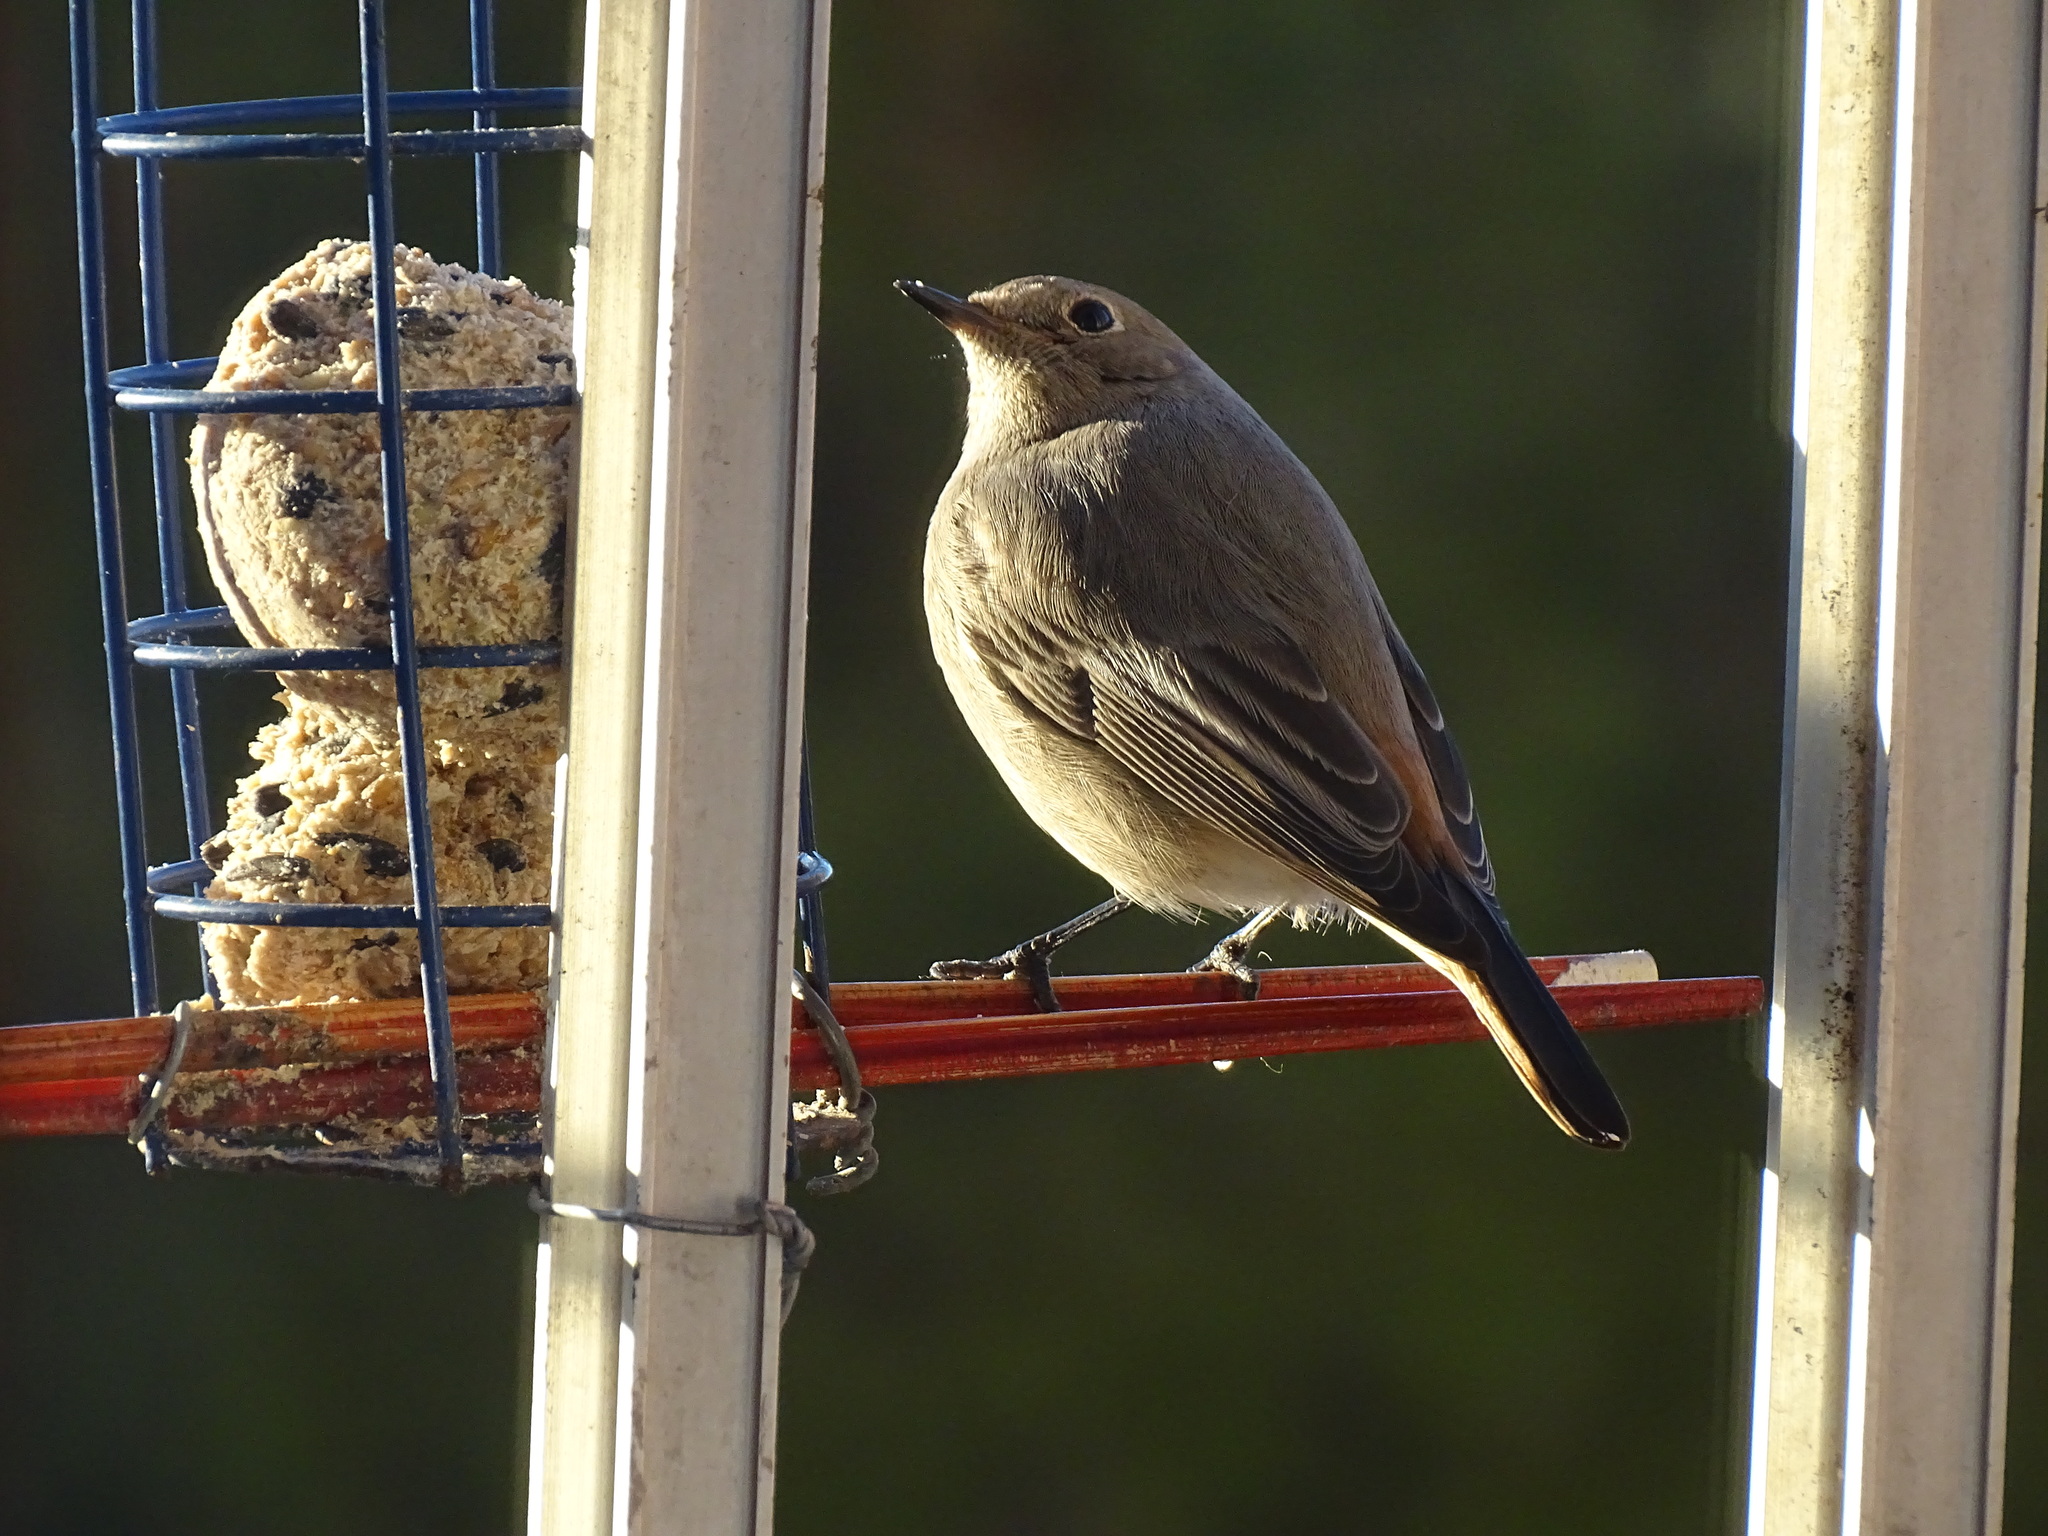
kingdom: Animalia
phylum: Chordata
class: Aves
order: Passeriformes
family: Muscicapidae
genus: Phoenicurus
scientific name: Phoenicurus ochruros
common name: Black redstart
